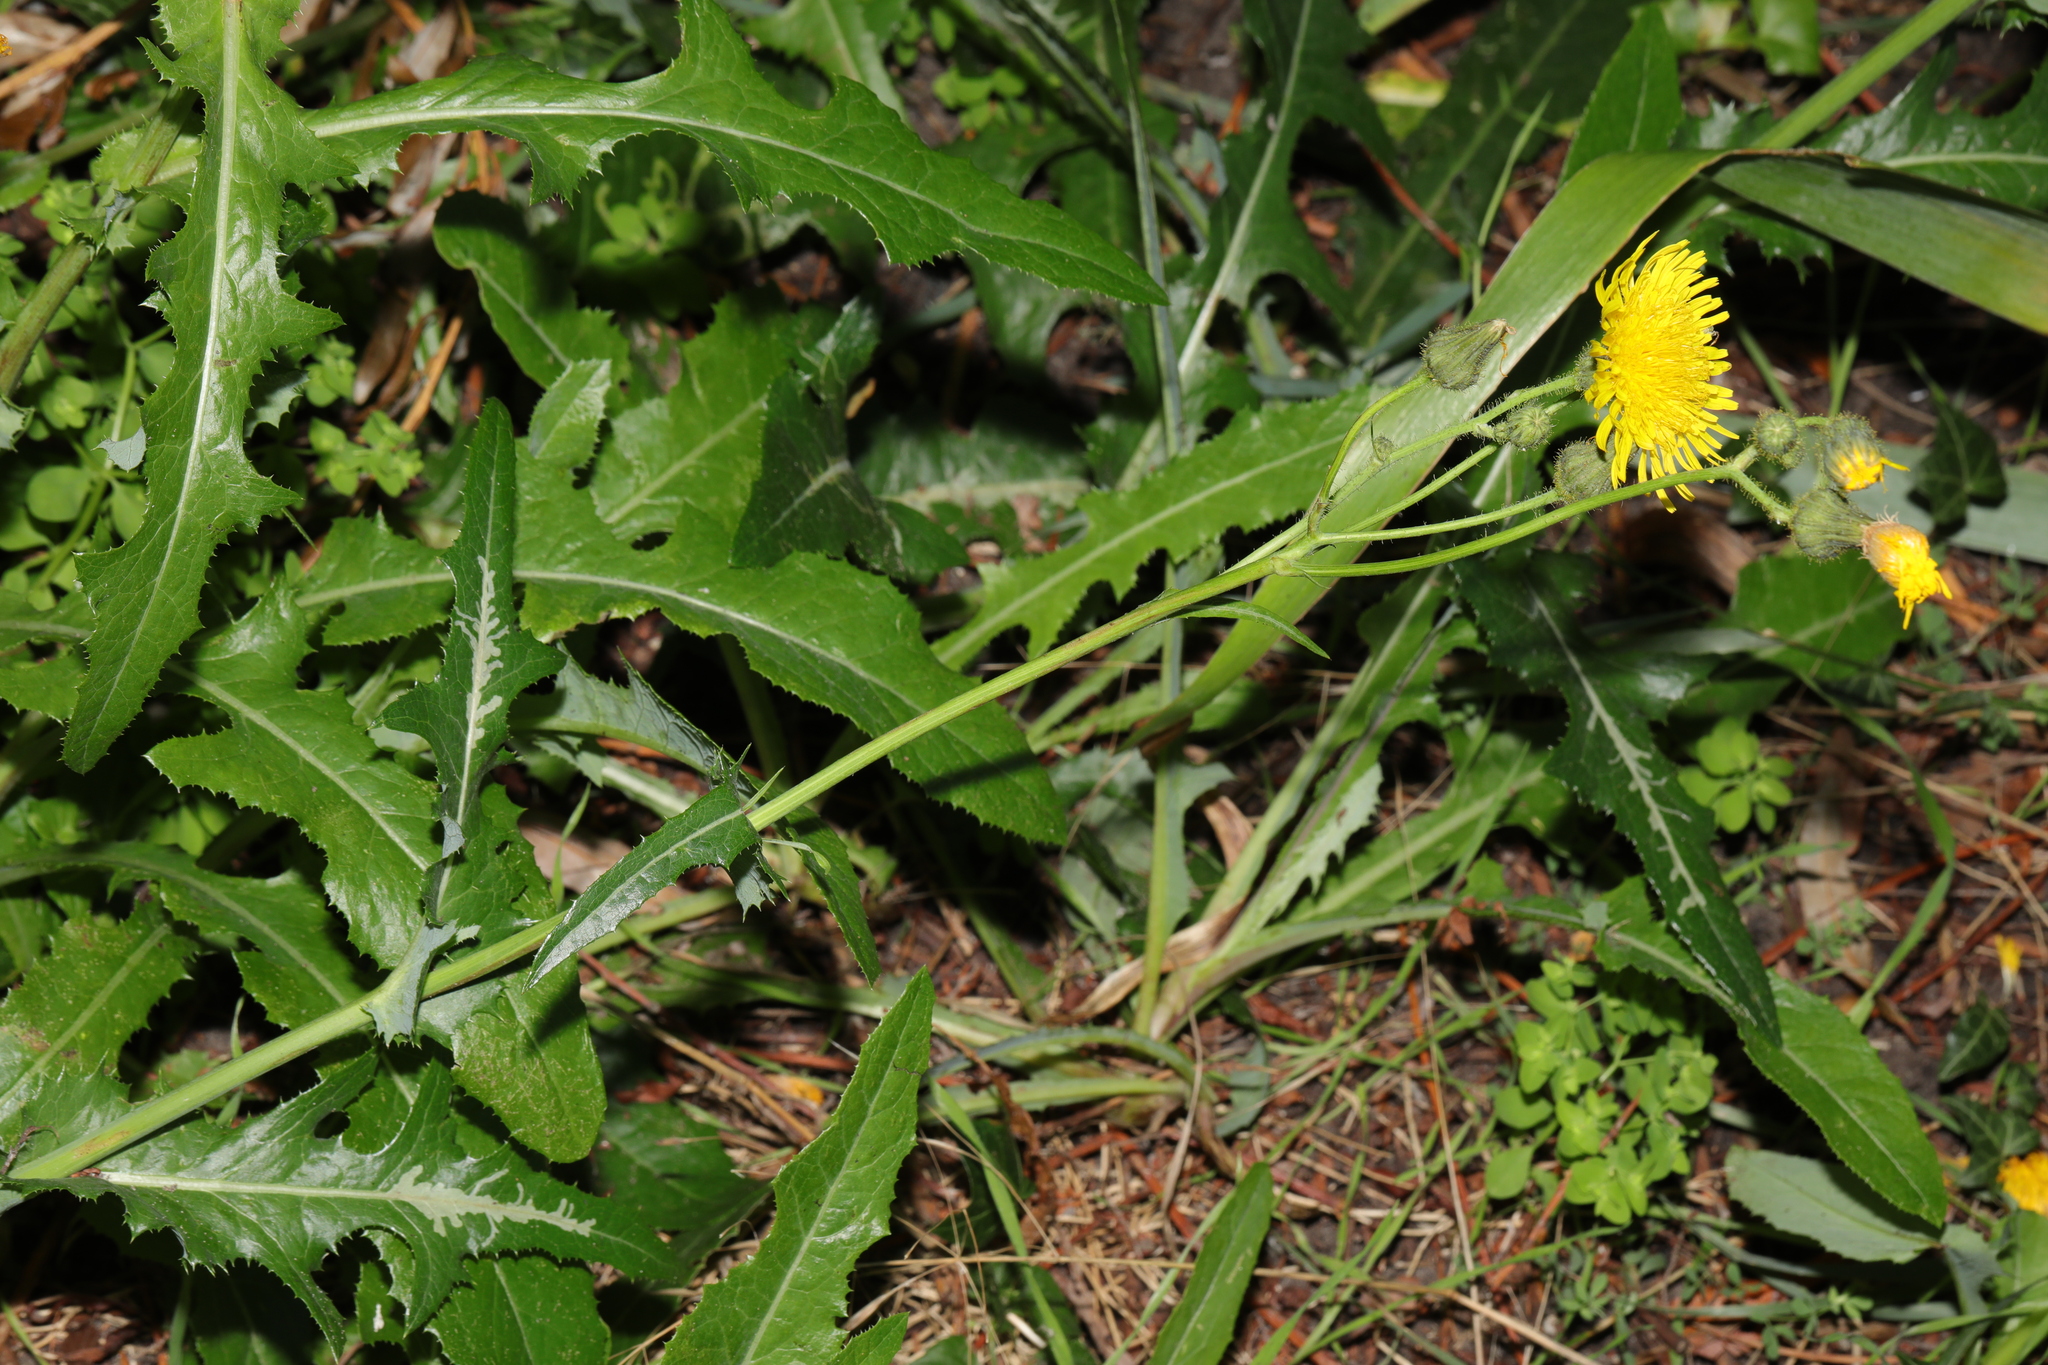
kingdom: Plantae
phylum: Tracheophyta
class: Magnoliopsida
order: Asterales
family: Asteraceae
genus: Sonchus
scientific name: Sonchus arvensis
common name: Perennial sow-thistle
